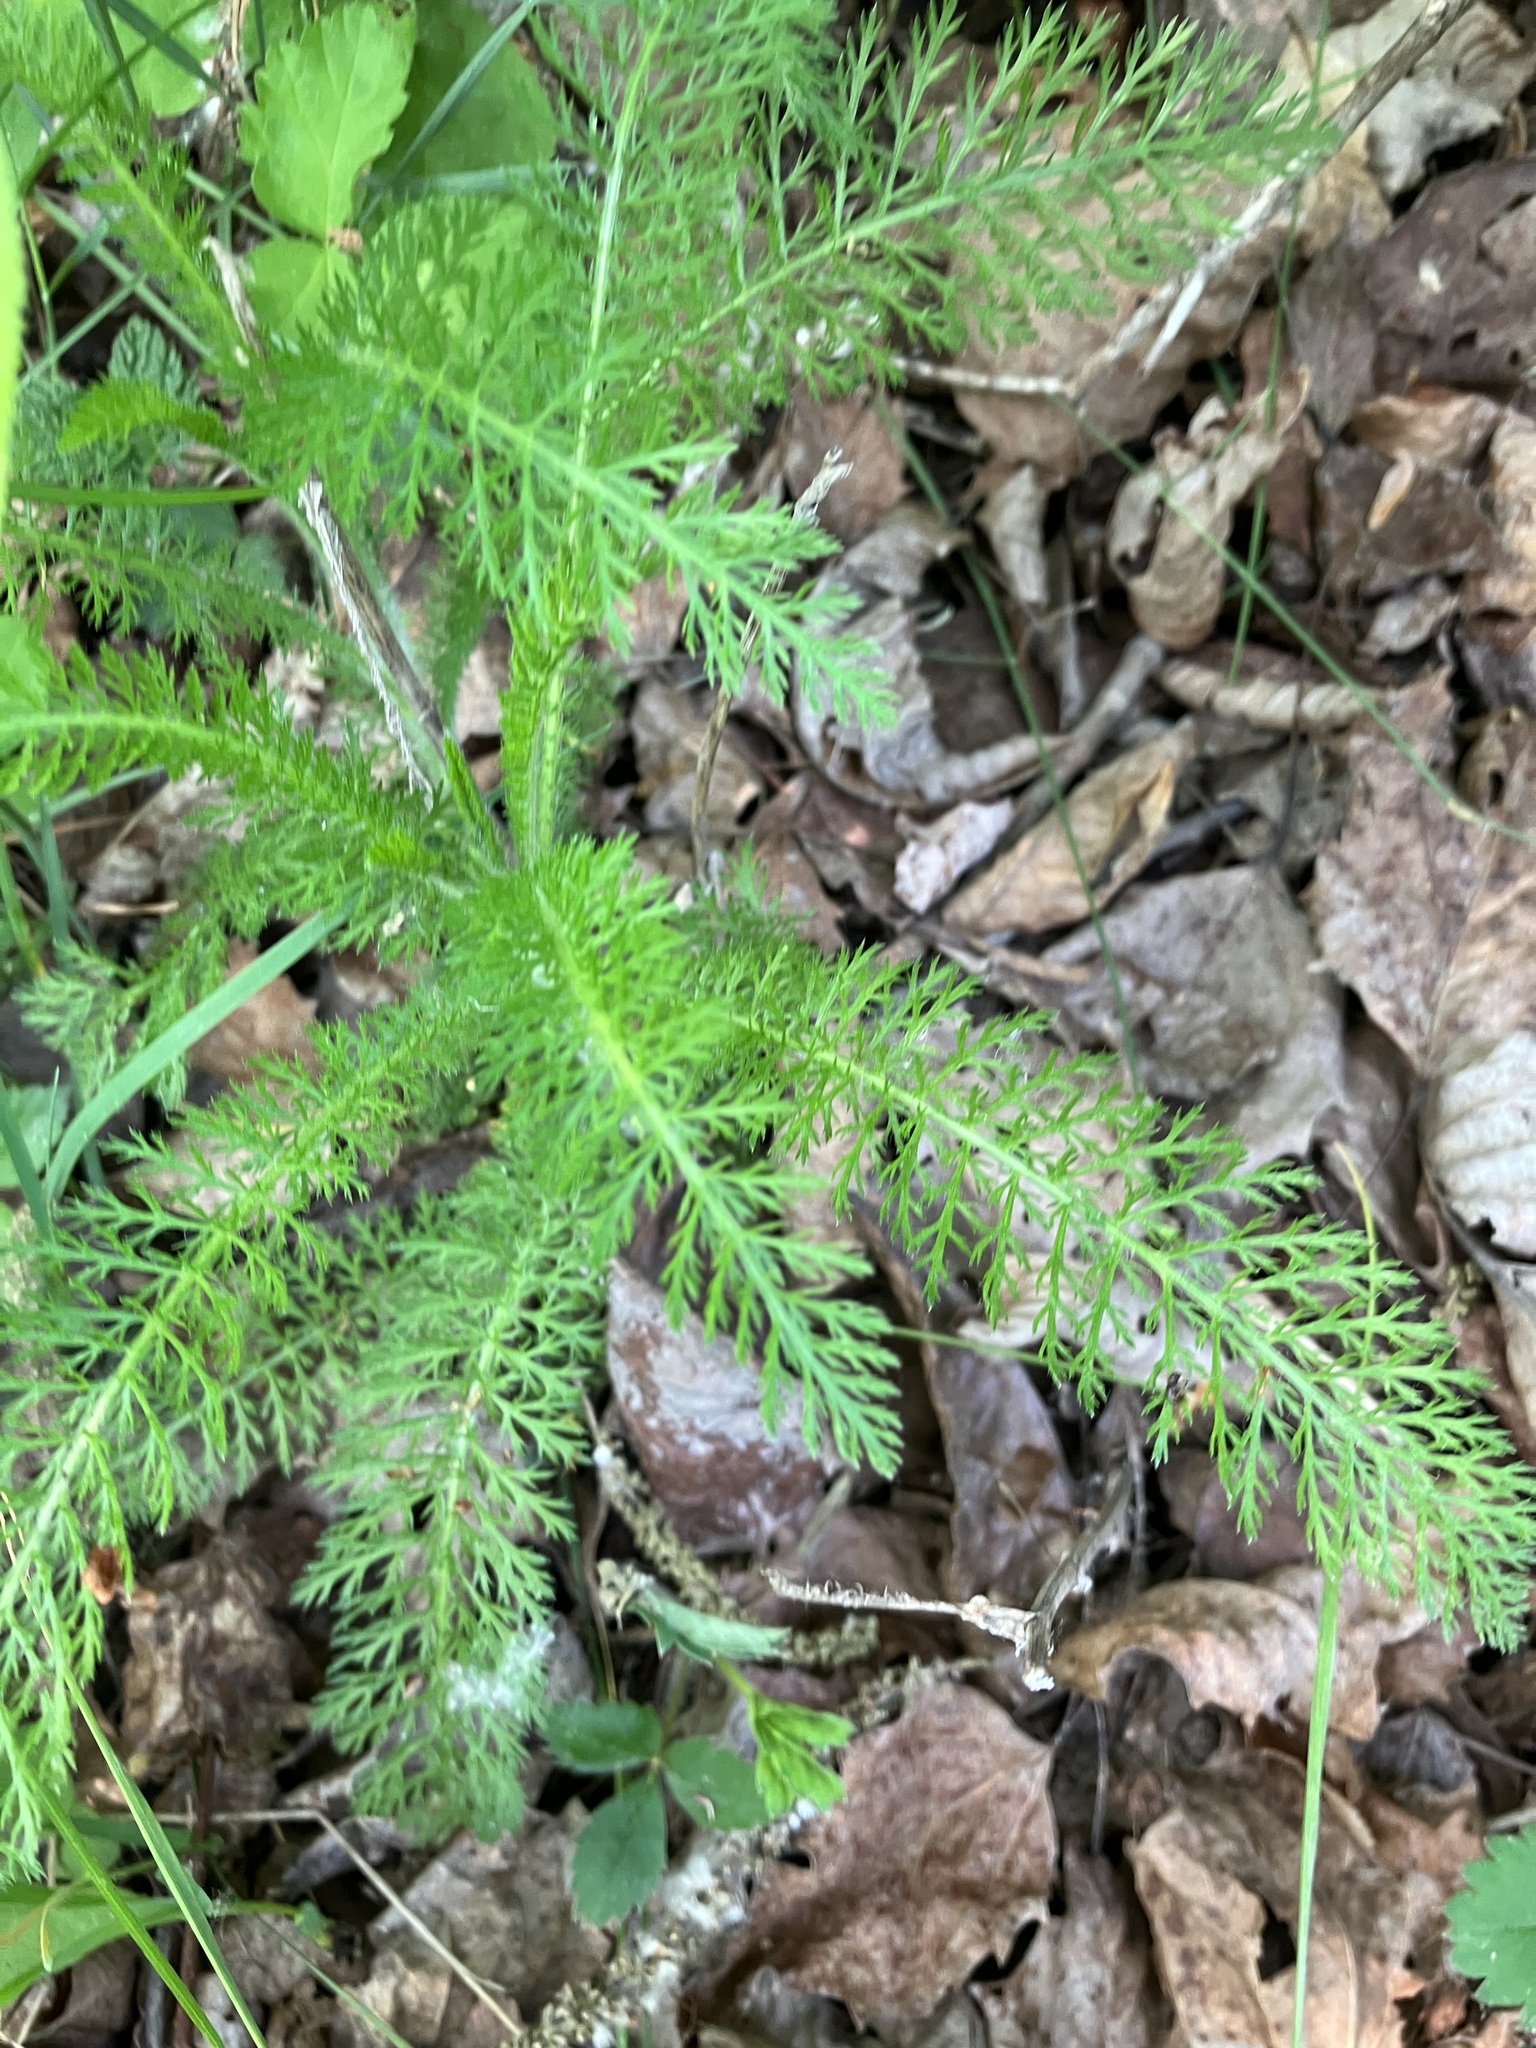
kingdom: Plantae
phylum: Tracheophyta
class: Magnoliopsida
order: Asterales
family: Asteraceae
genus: Achillea
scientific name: Achillea millefolium
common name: Yarrow
